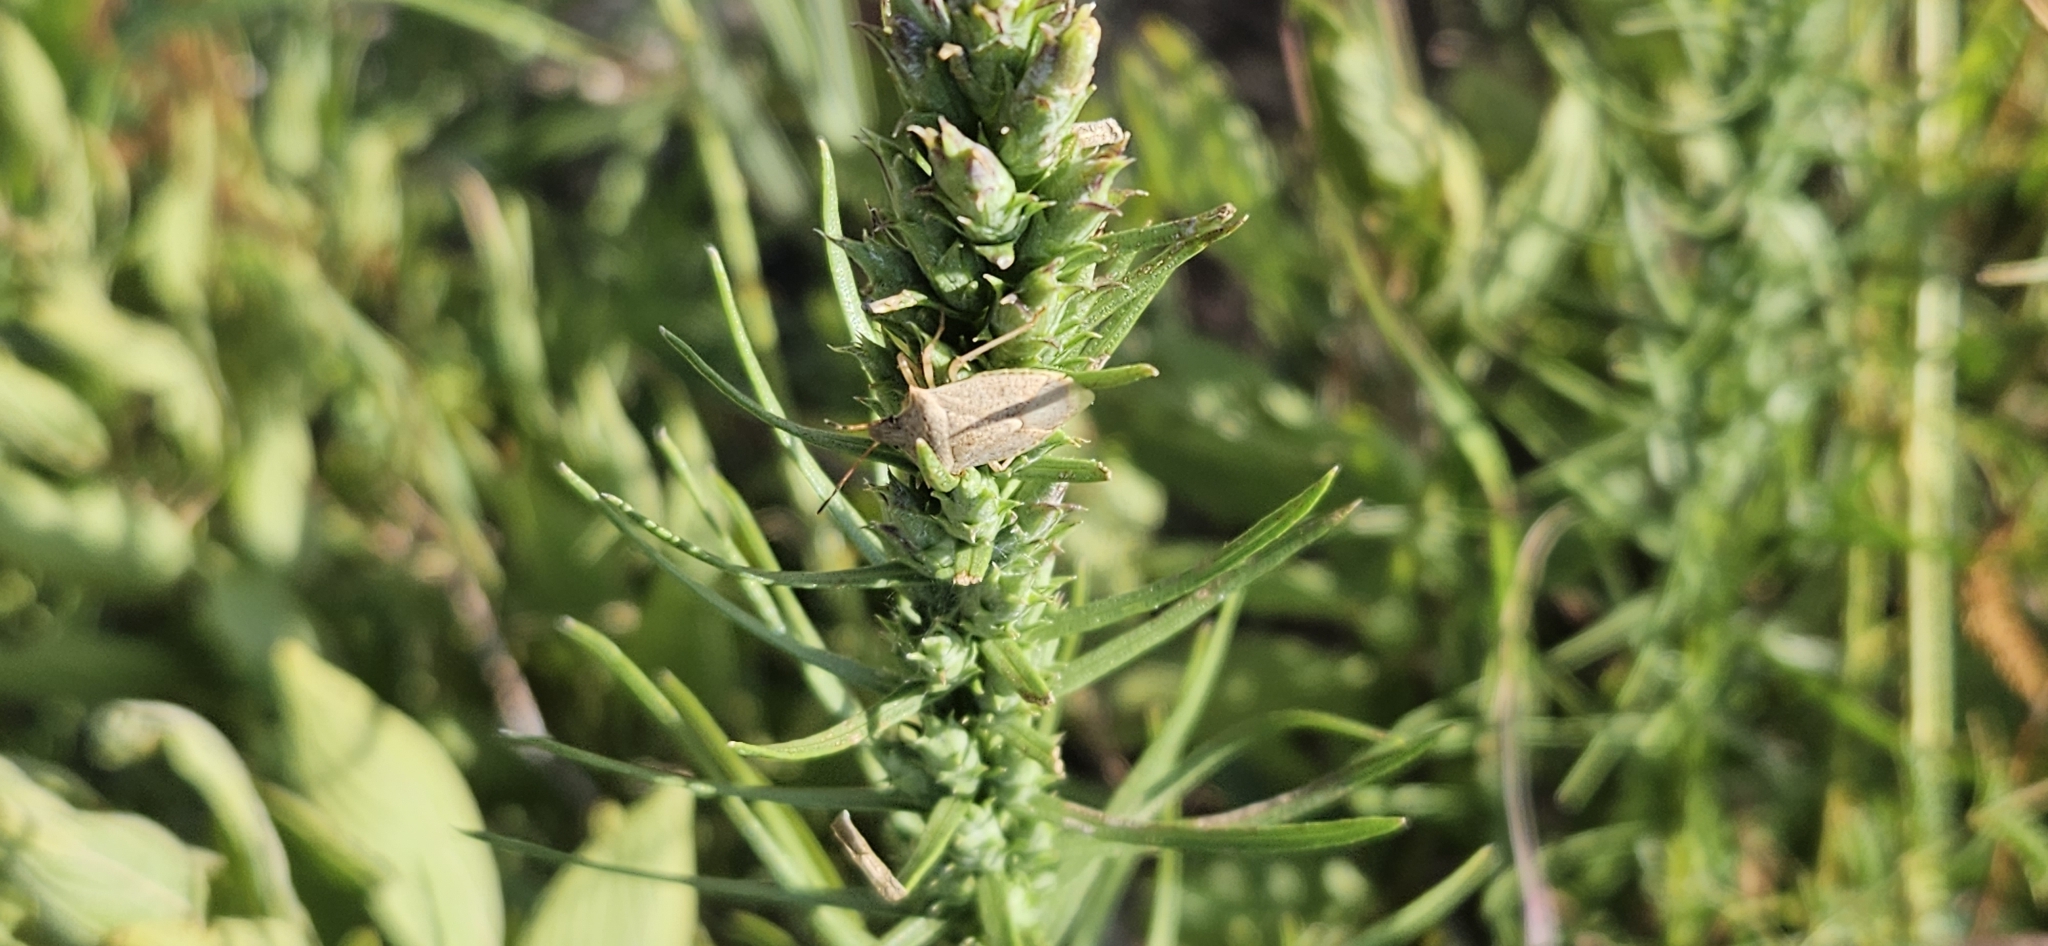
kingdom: Animalia
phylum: Arthropoda
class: Insecta
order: Hemiptera
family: Pentatomidae
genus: Euschistus
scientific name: Euschistus servus
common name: Brown stink bug
